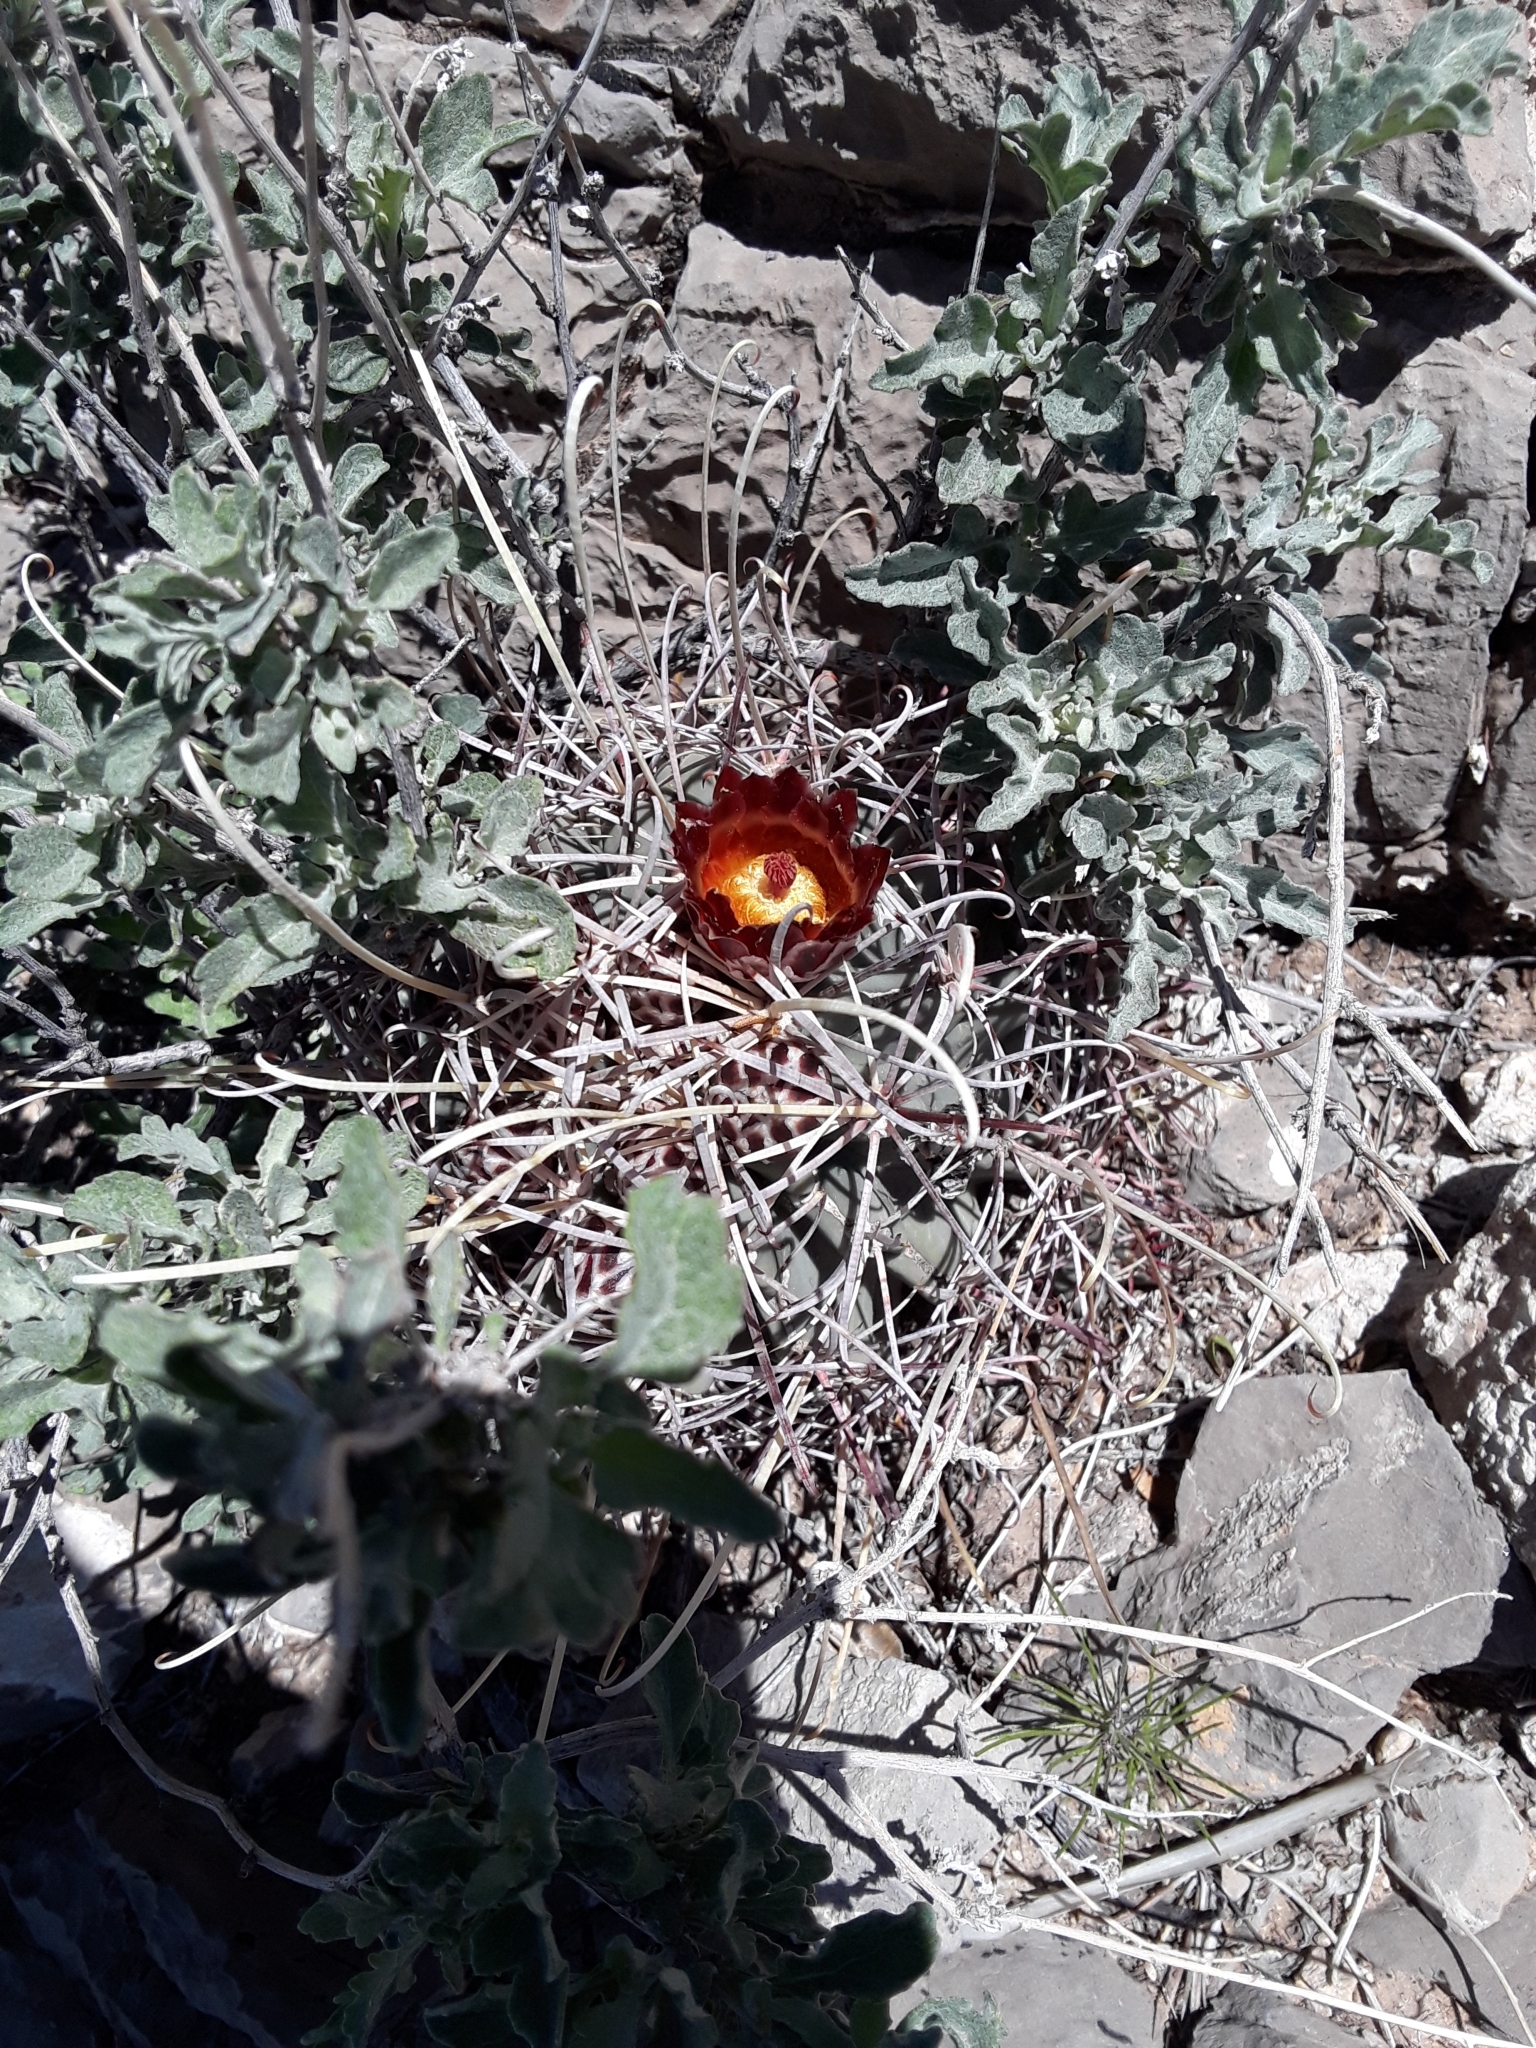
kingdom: Plantae
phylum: Tracheophyta
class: Magnoliopsida
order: Caryophyllales
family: Cactaceae
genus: Ferocactus
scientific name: Ferocactus uncinatus
